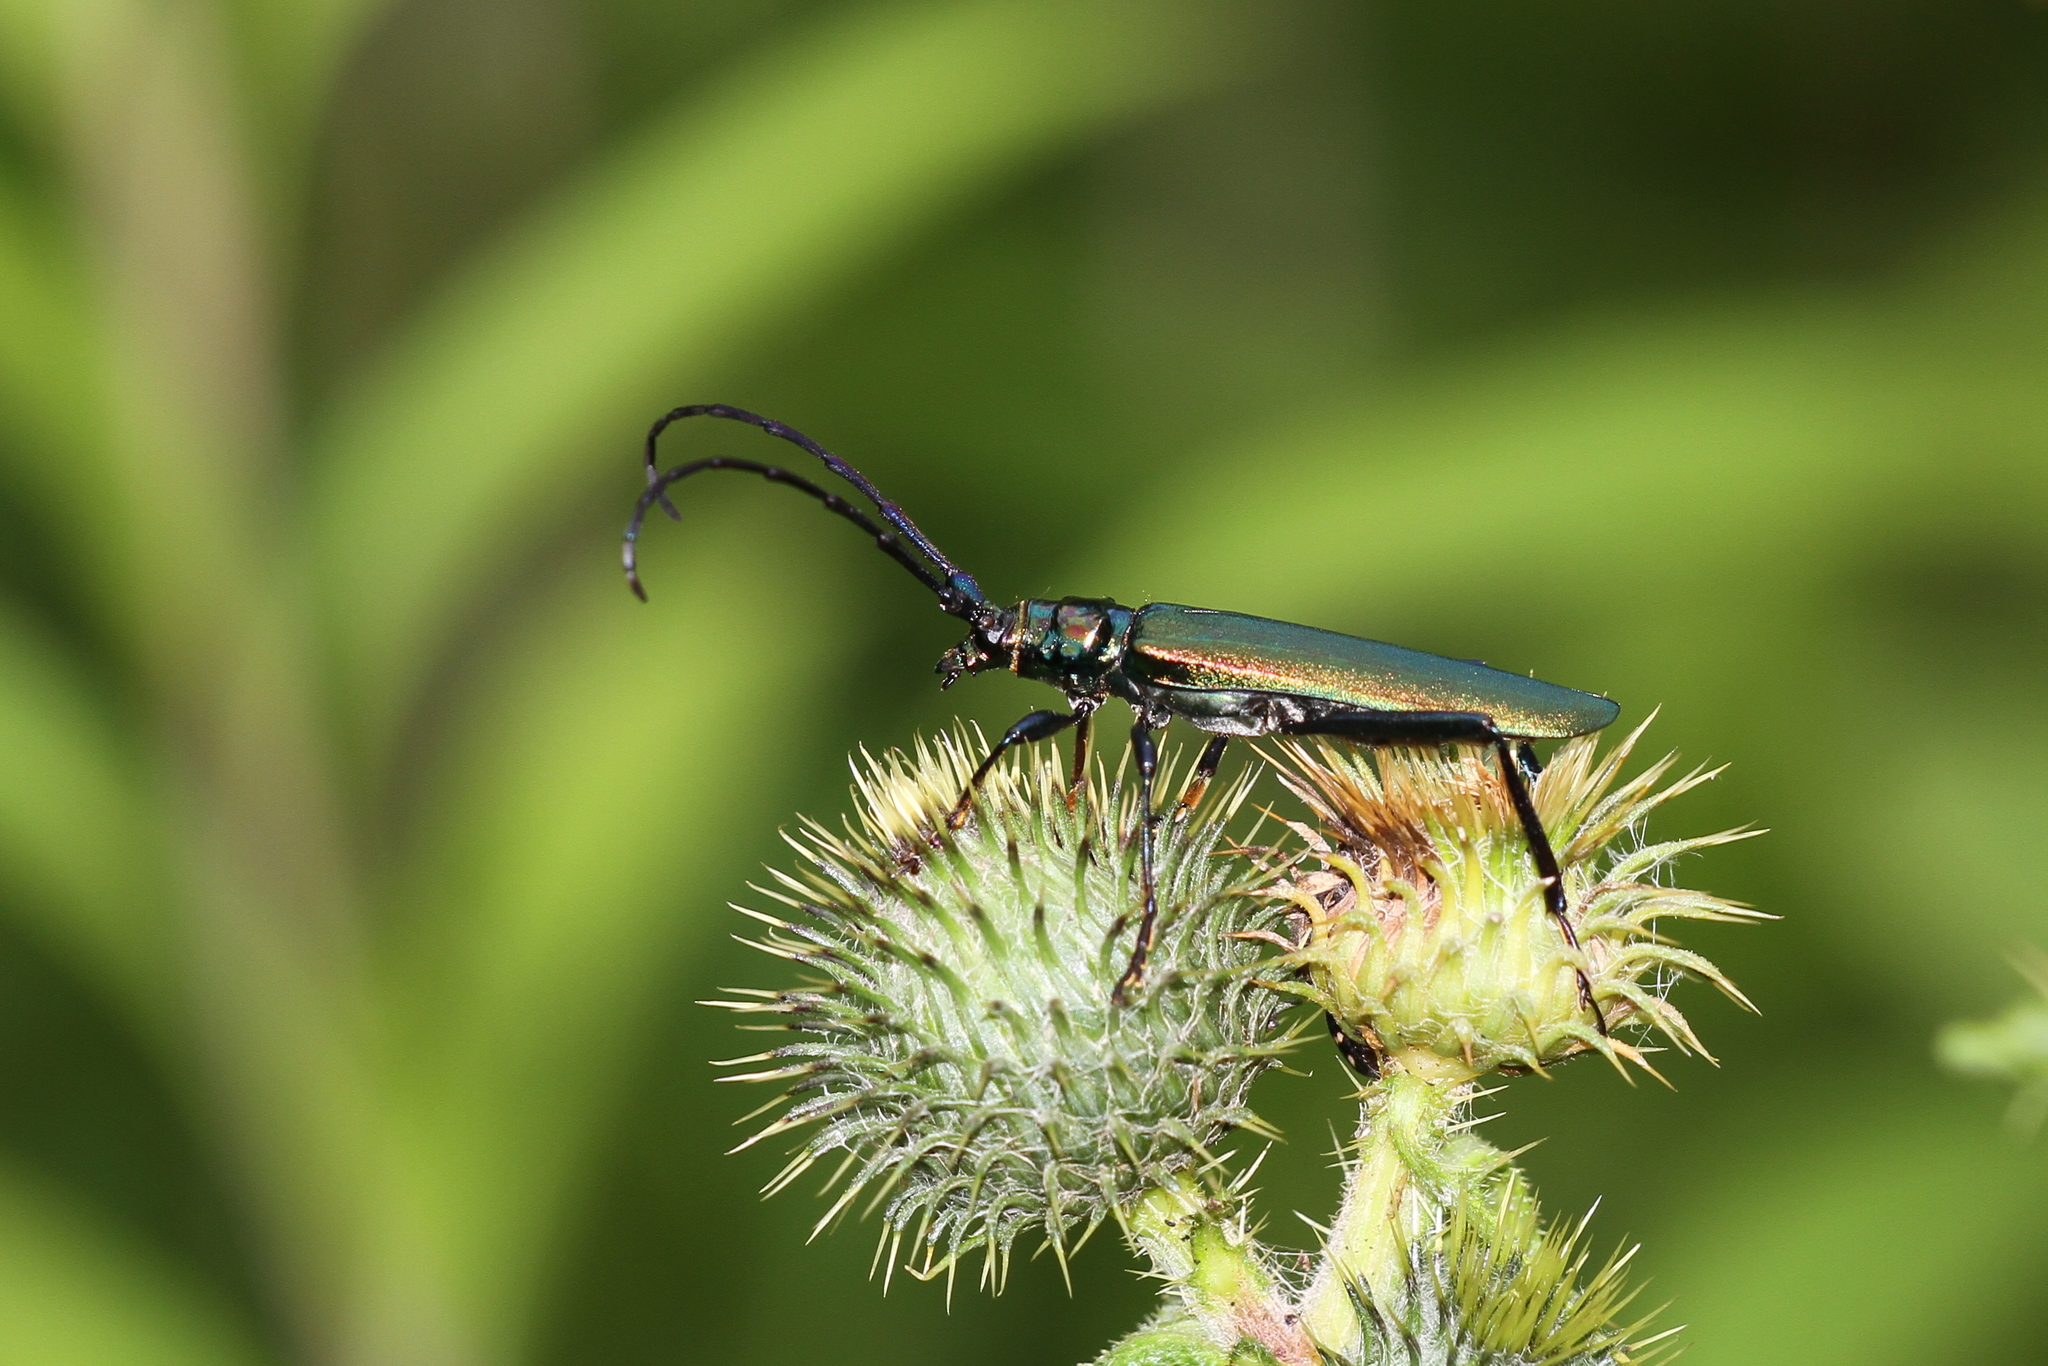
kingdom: Animalia
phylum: Arthropoda
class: Insecta
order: Coleoptera
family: Cerambycidae
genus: Aromia
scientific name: Aromia moschata
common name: Musk beetle
